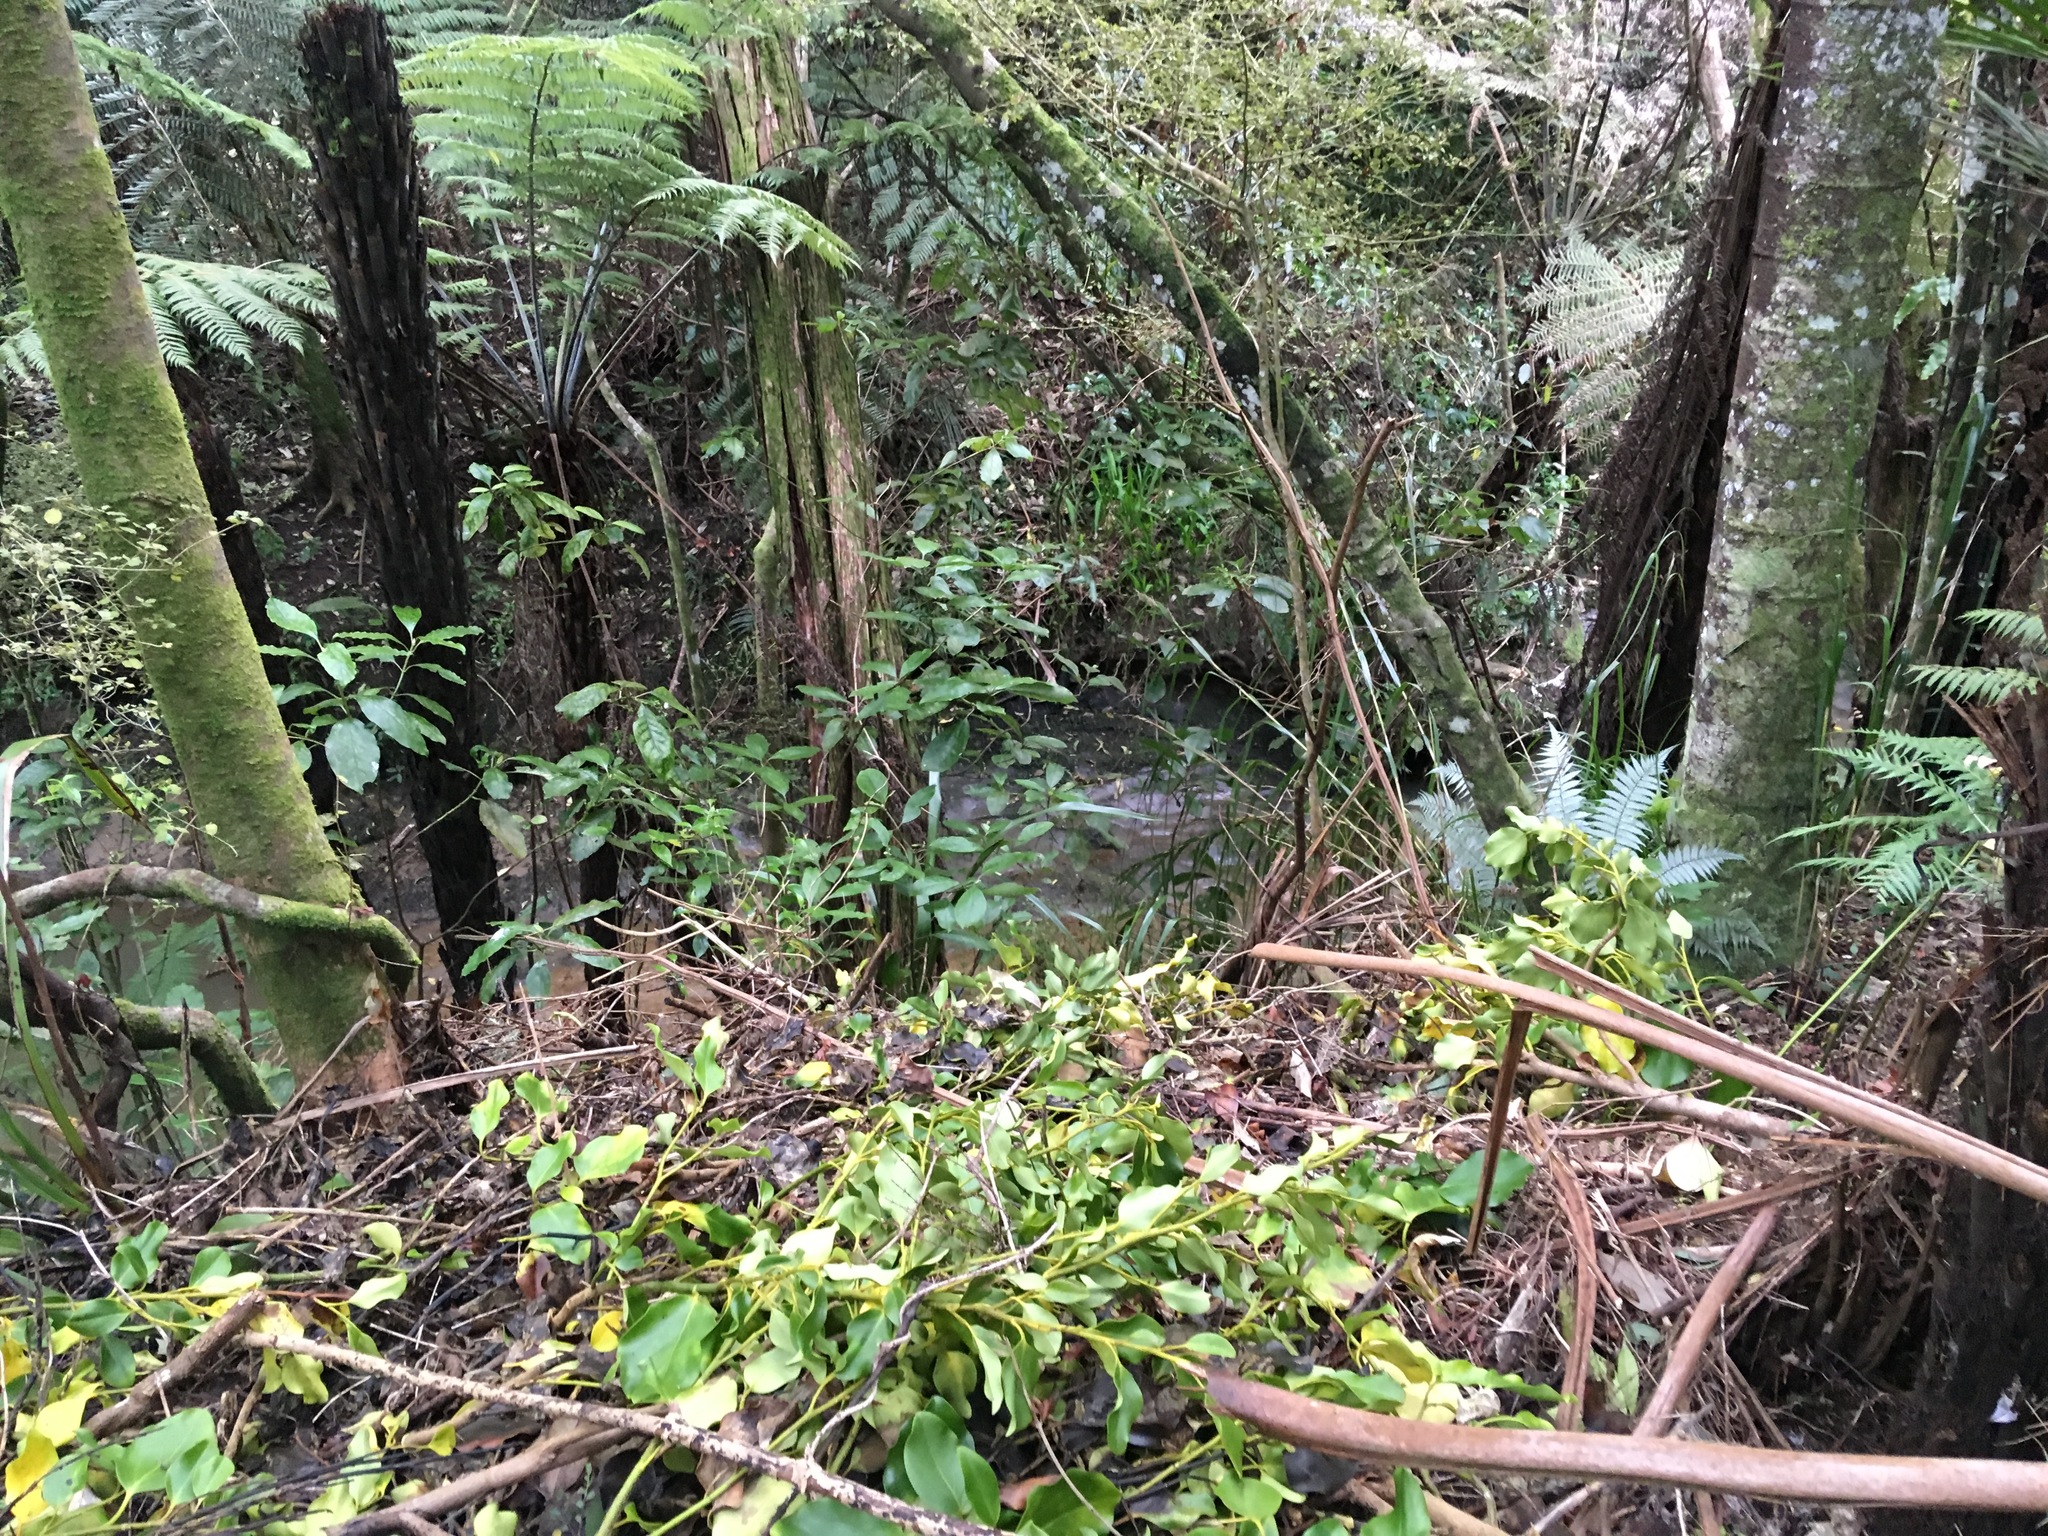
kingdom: Plantae
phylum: Tracheophyta
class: Magnoliopsida
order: Apiales
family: Griseliniaceae
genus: Griselinia
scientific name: Griselinia littoralis
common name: New zealand broadleaf
